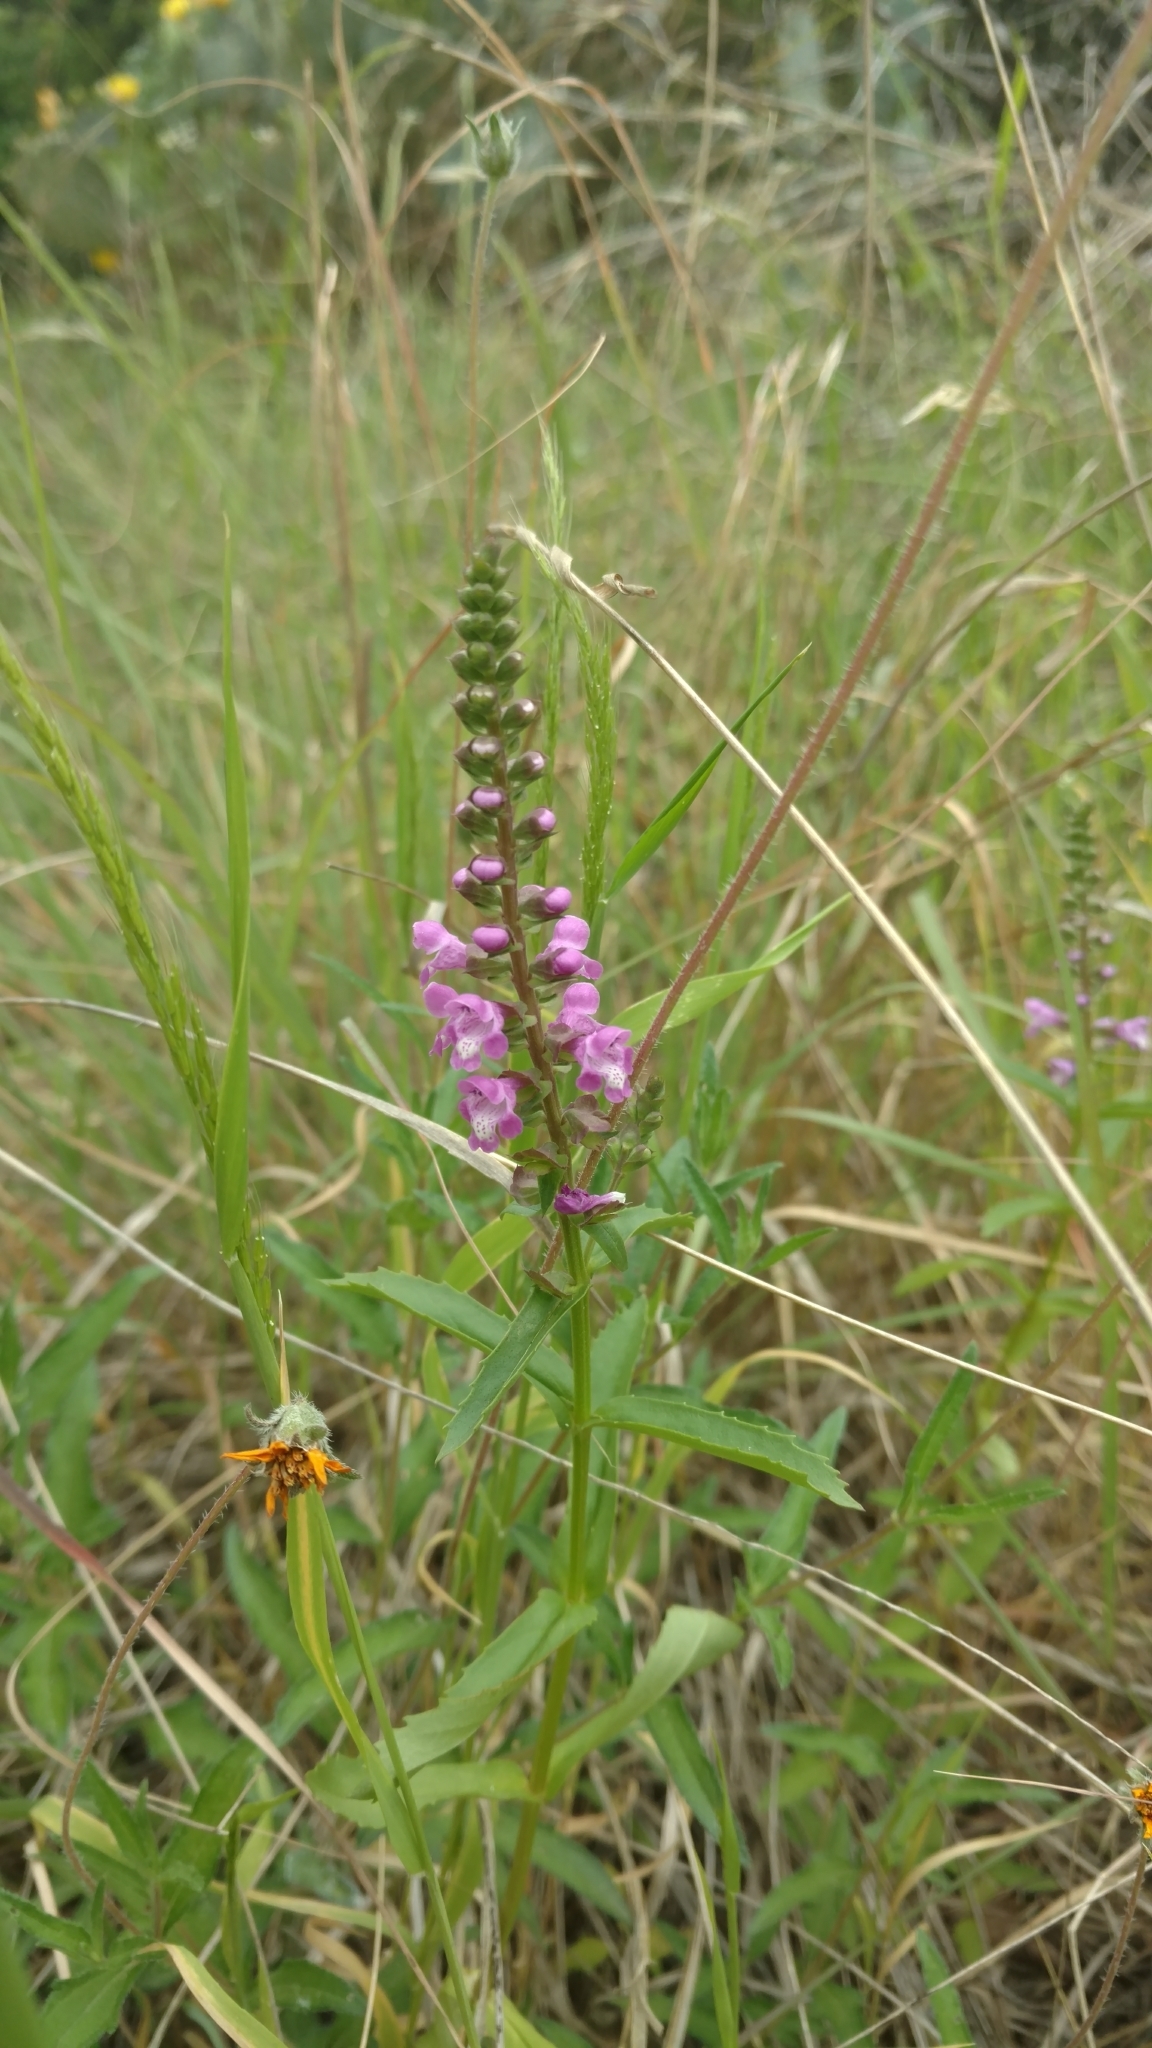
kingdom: Plantae
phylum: Tracheophyta
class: Magnoliopsida
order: Lamiales
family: Lamiaceae
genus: Warnockia
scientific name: Warnockia scutellarioides
